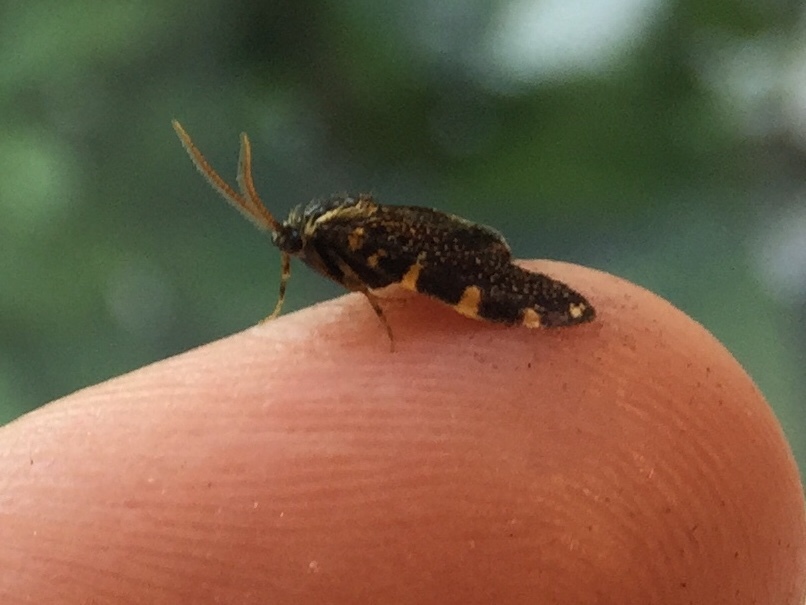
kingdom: Animalia
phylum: Arthropoda
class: Insecta
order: Lepidoptera
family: Psychidae
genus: Cebysa
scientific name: Cebysa leucotelus
